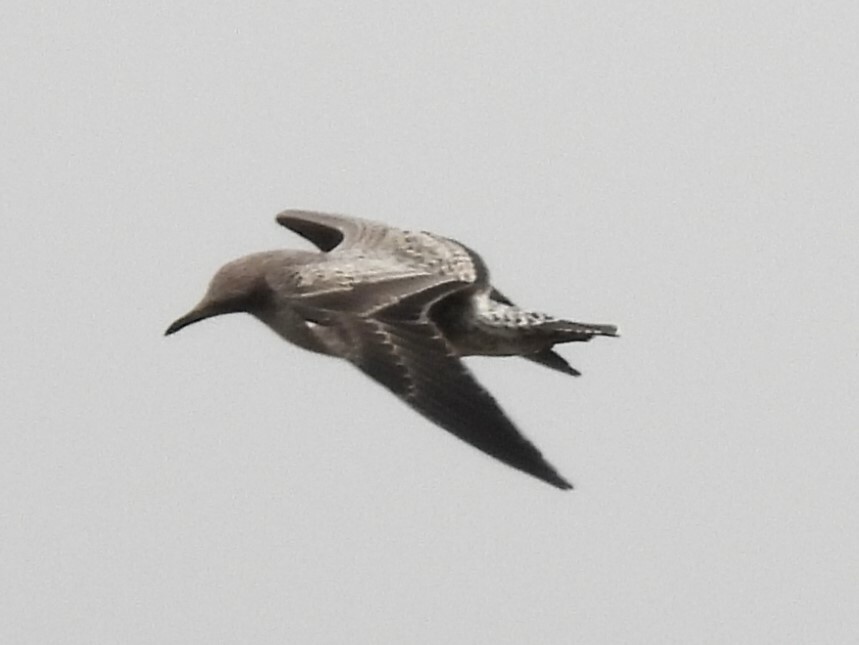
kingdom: Animalia
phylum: Chordata
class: Aves
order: Charadriiformes
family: Laridae
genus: Larus
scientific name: Larus californicus
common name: California gull
